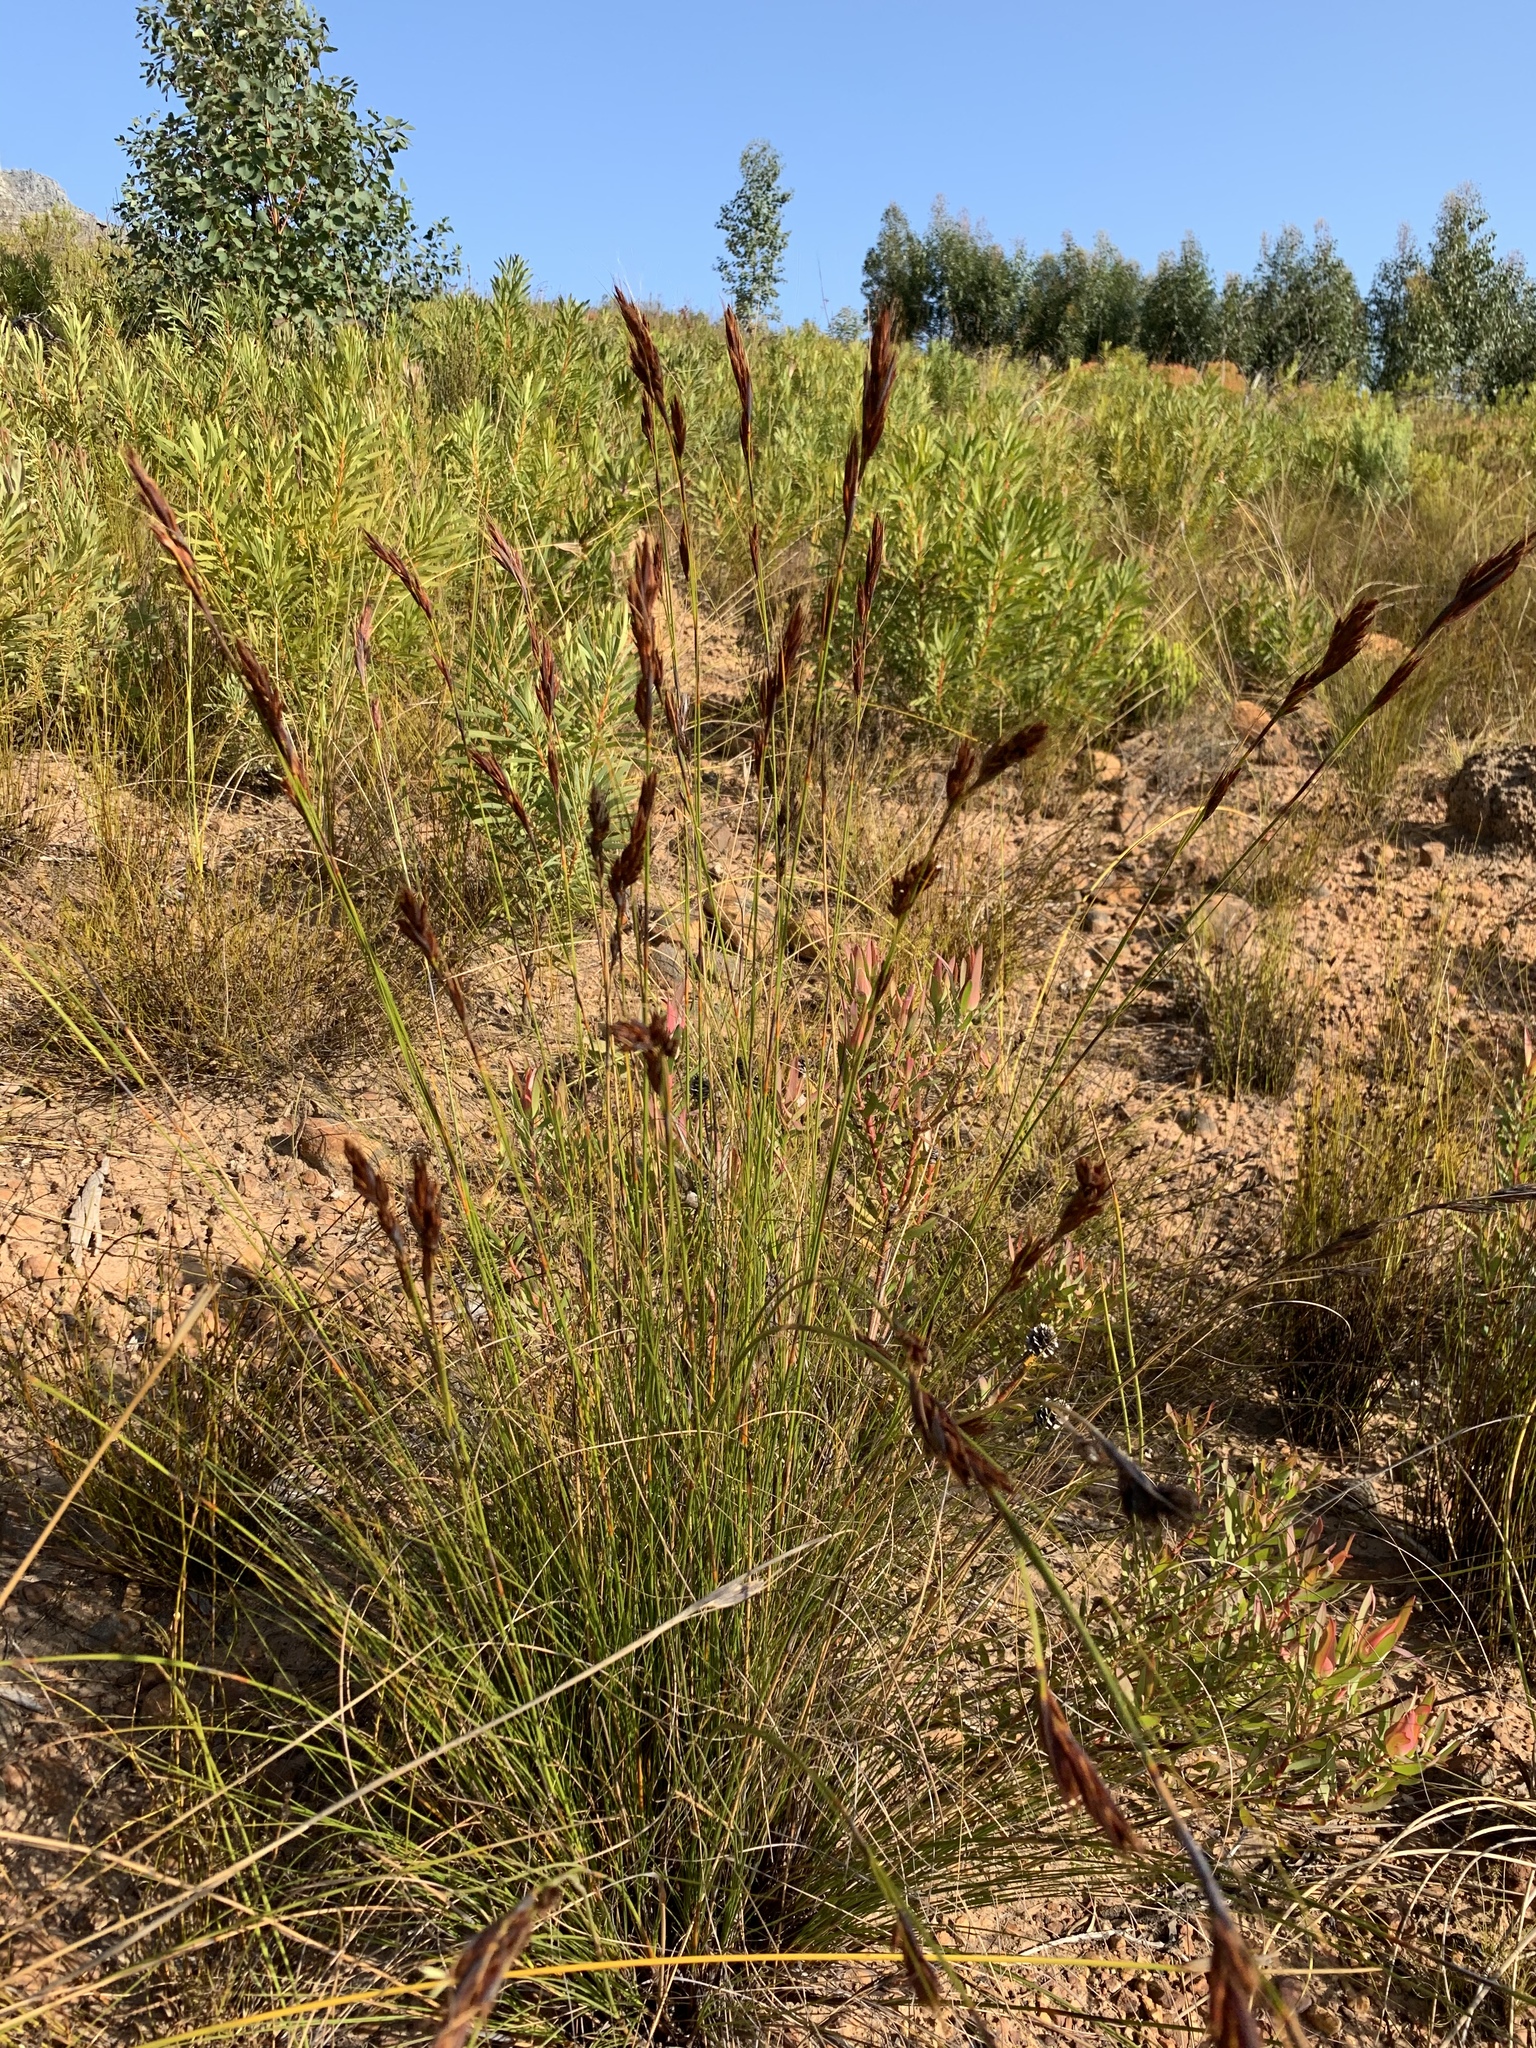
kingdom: Plantae
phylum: Tracheophyta
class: Liliopsida
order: Poales
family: Cyperaceae
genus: Tetraria
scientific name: Tetraria ustulata
